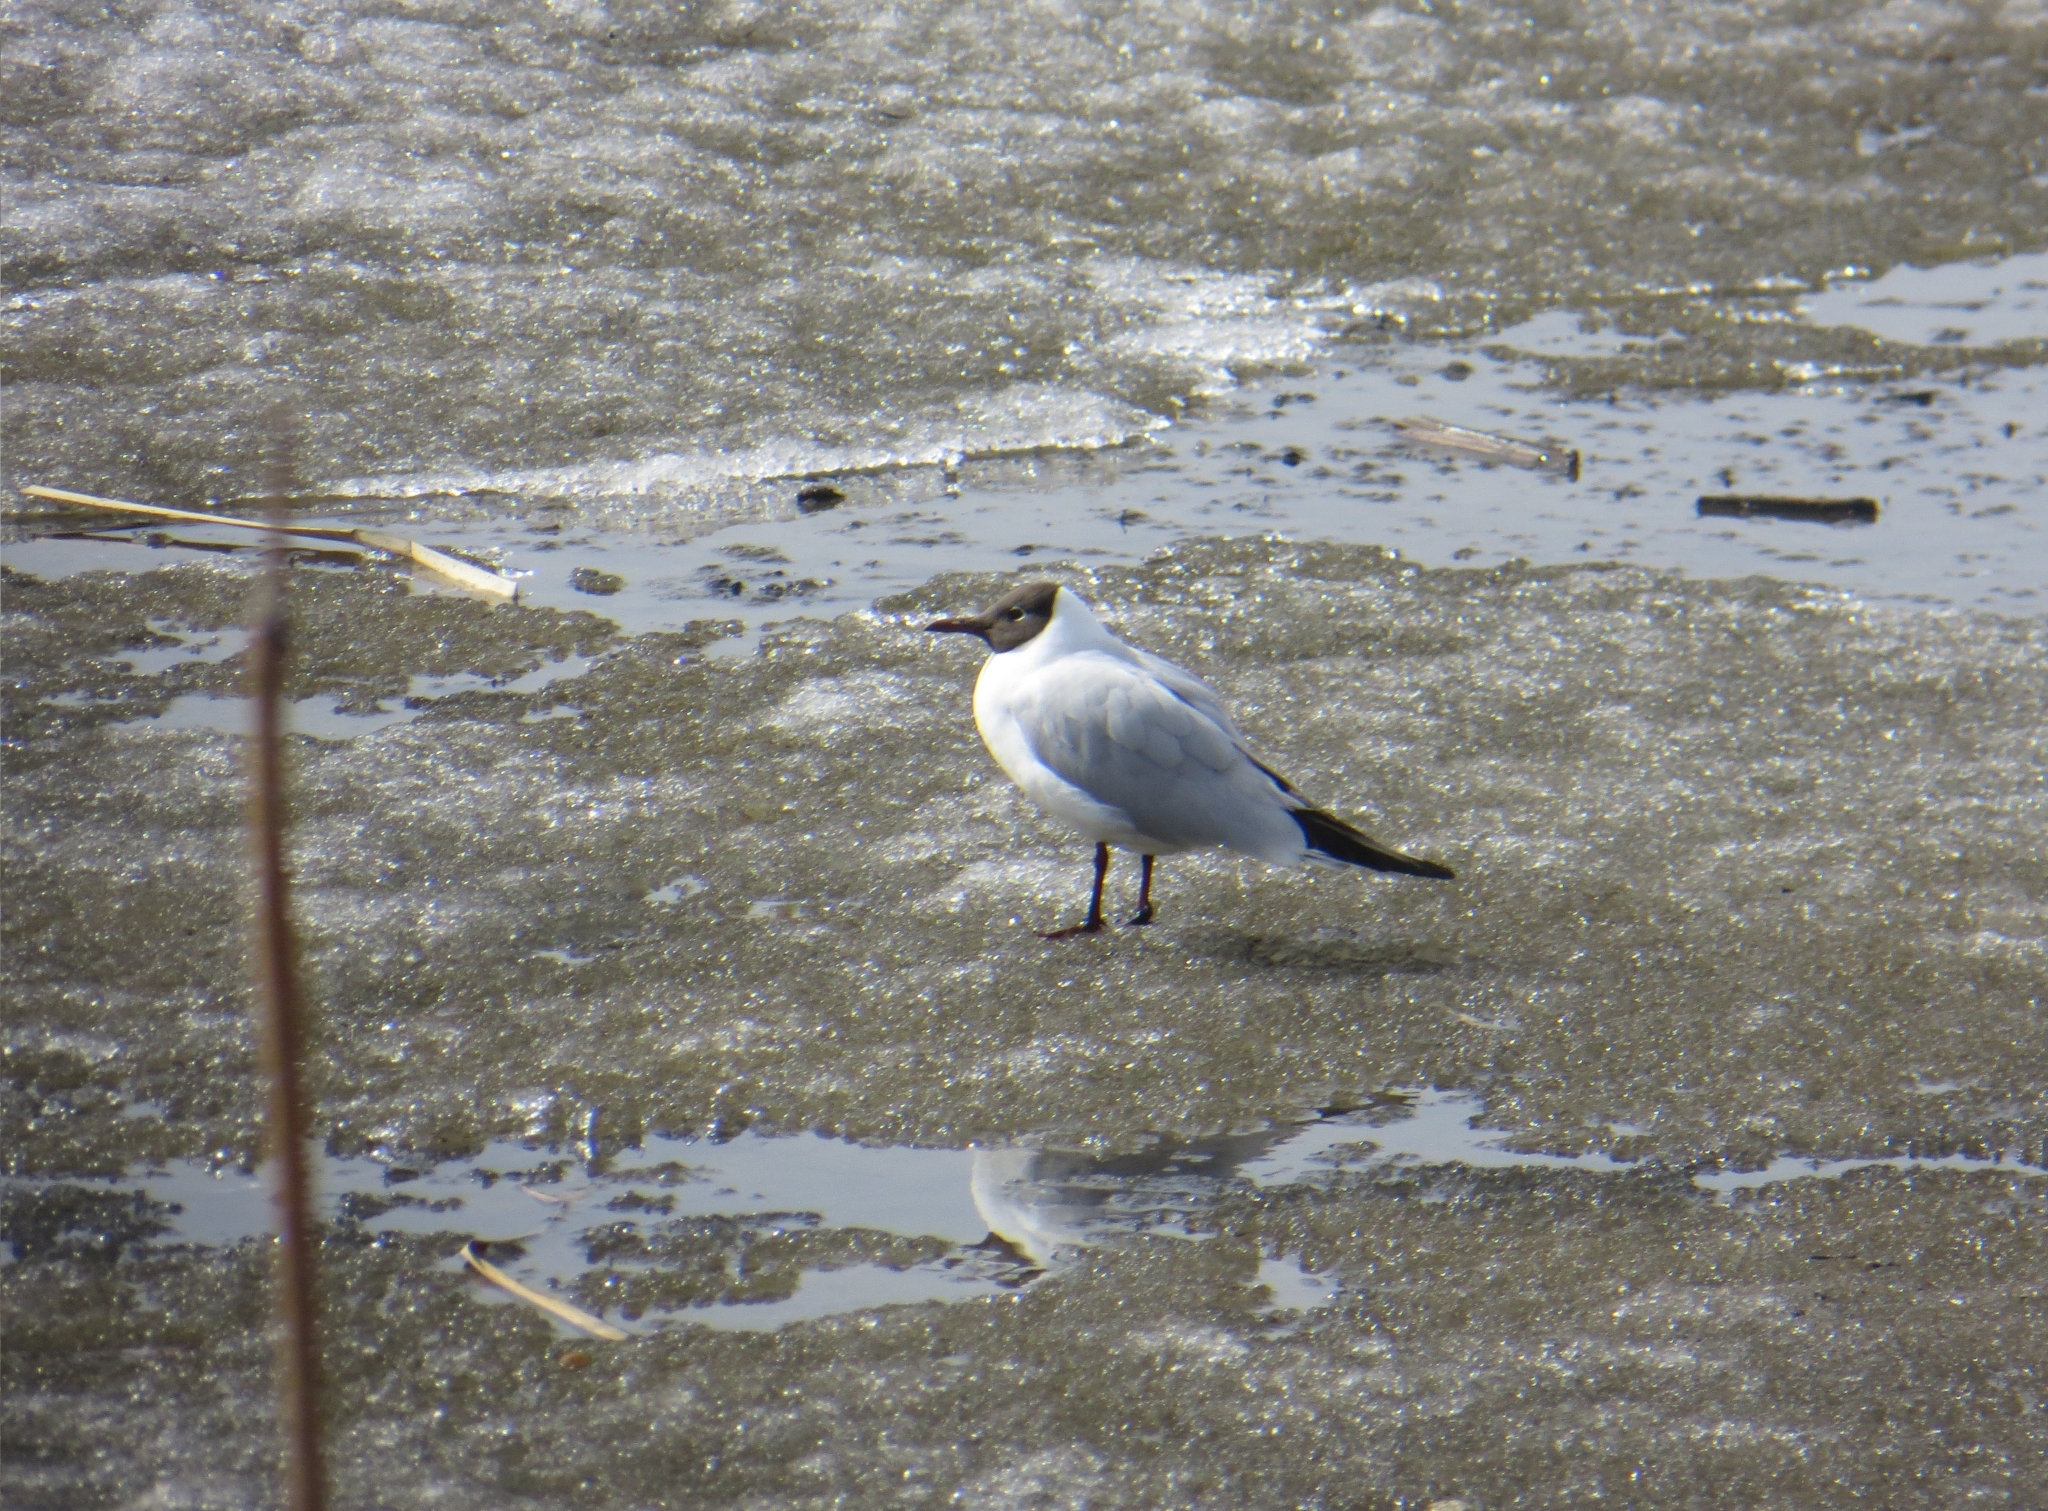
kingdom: Animalia
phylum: Chordata
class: Aves
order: Charadriiformes
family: Laridae
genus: Chroicocephalus
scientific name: Chroicocephalus ridibundus
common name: Black-headed gull
